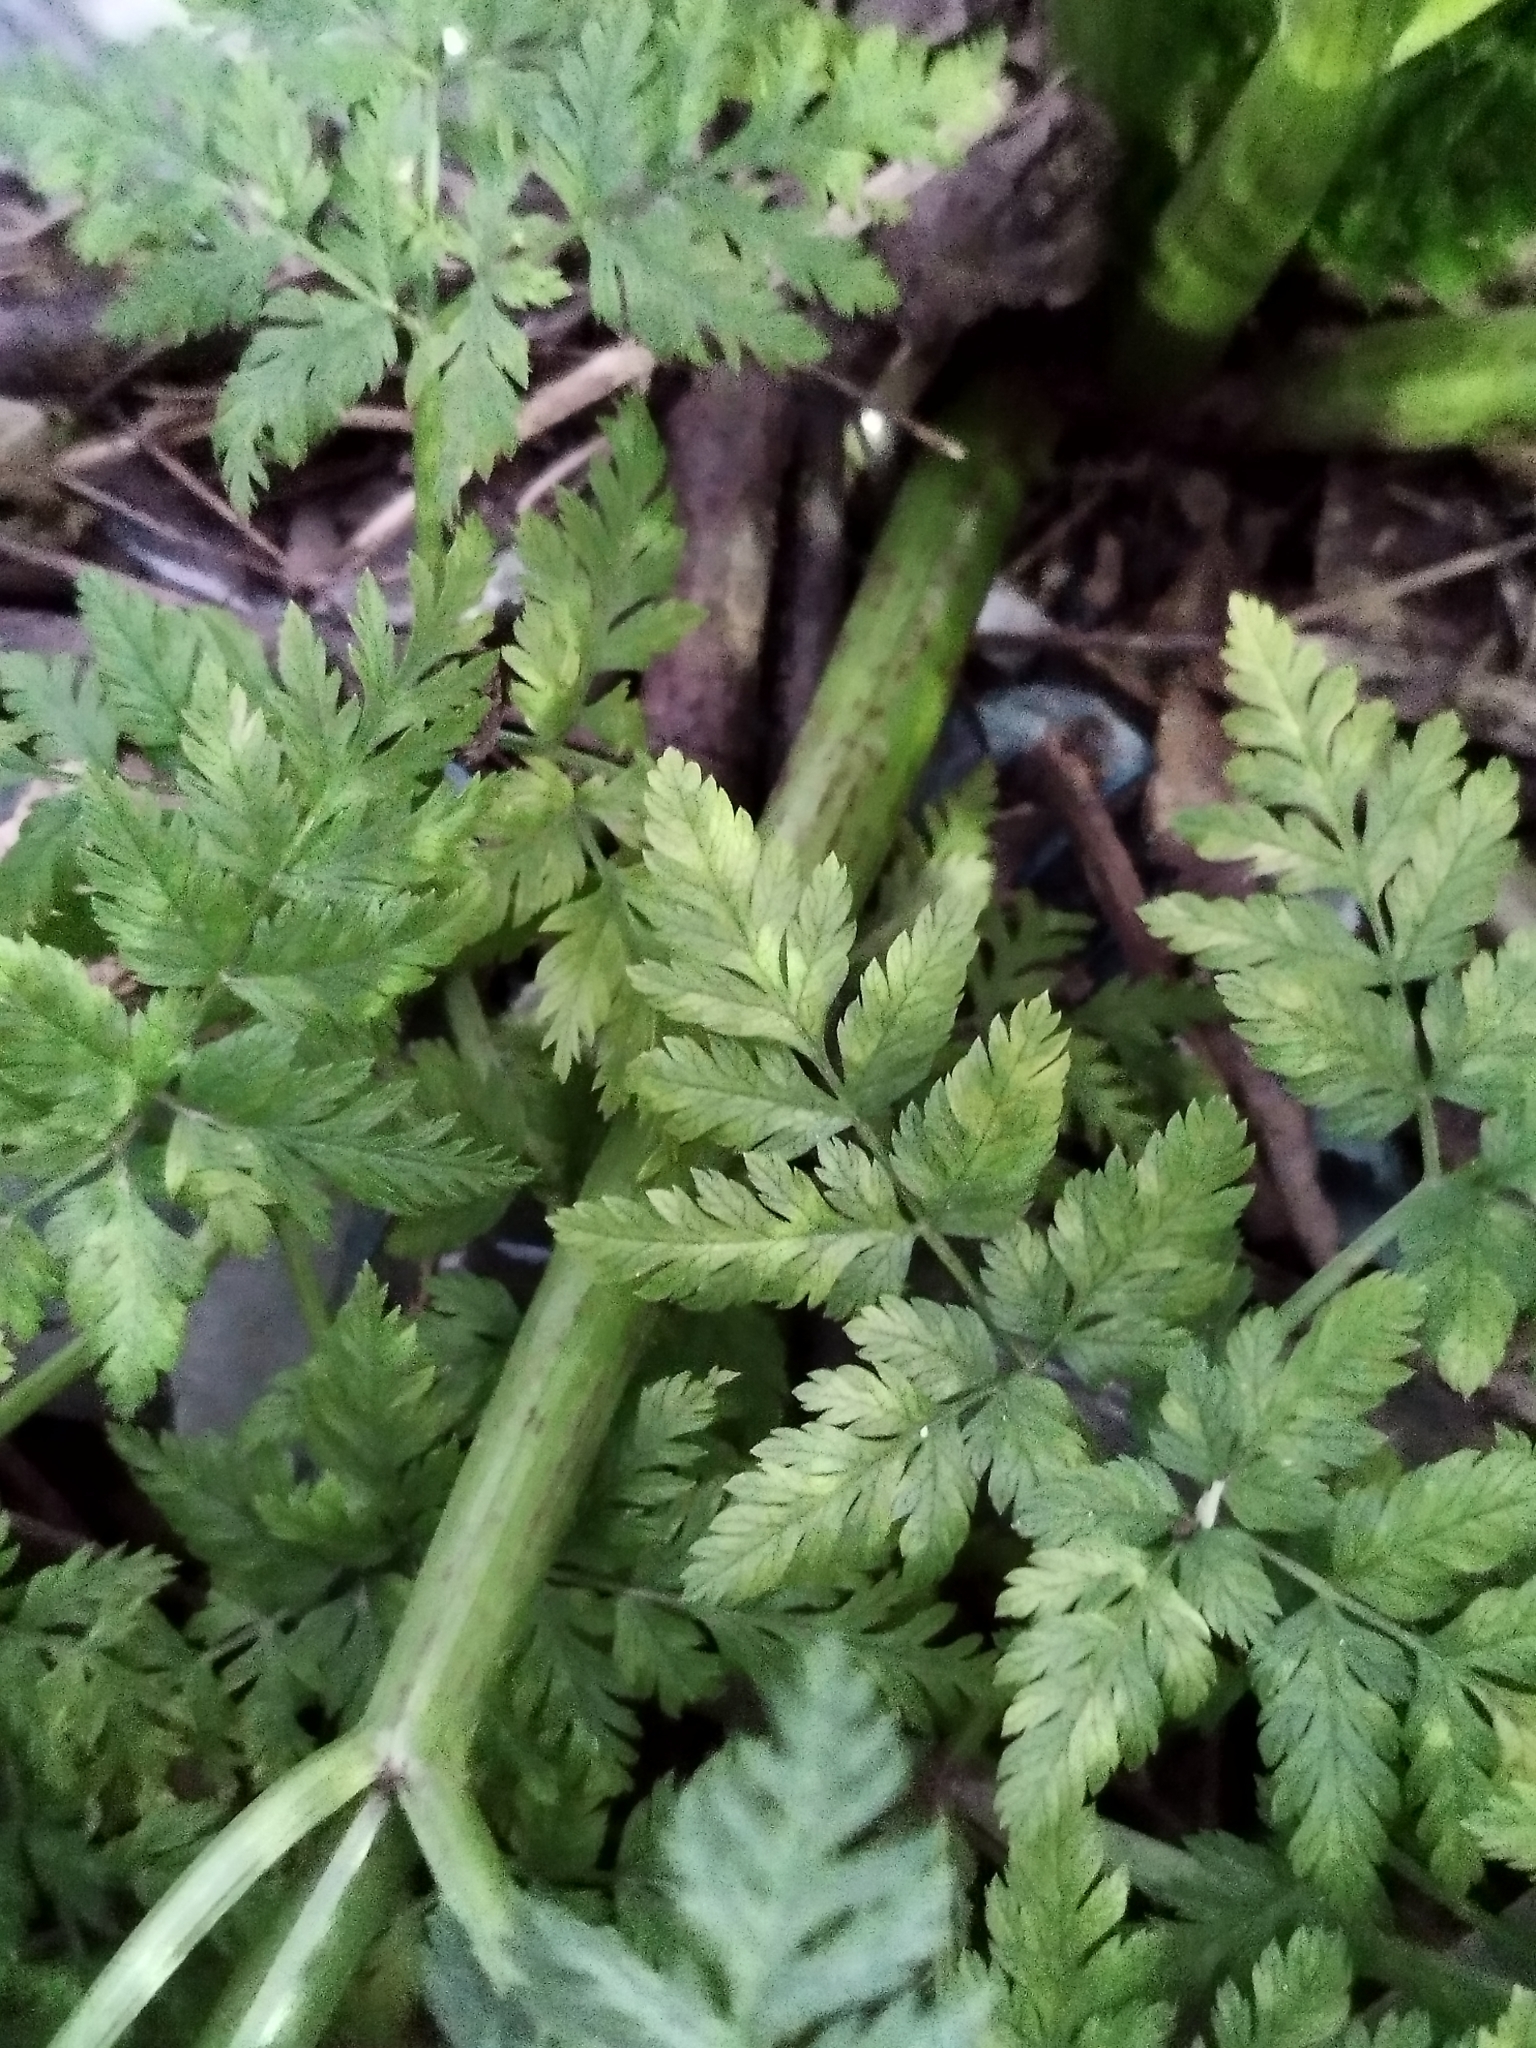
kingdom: Plantae
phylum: Tracheophyta
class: Magnoliopsida
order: Apiales
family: Apiaceae
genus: Conium
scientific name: Conium maculatum
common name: Hemlock
